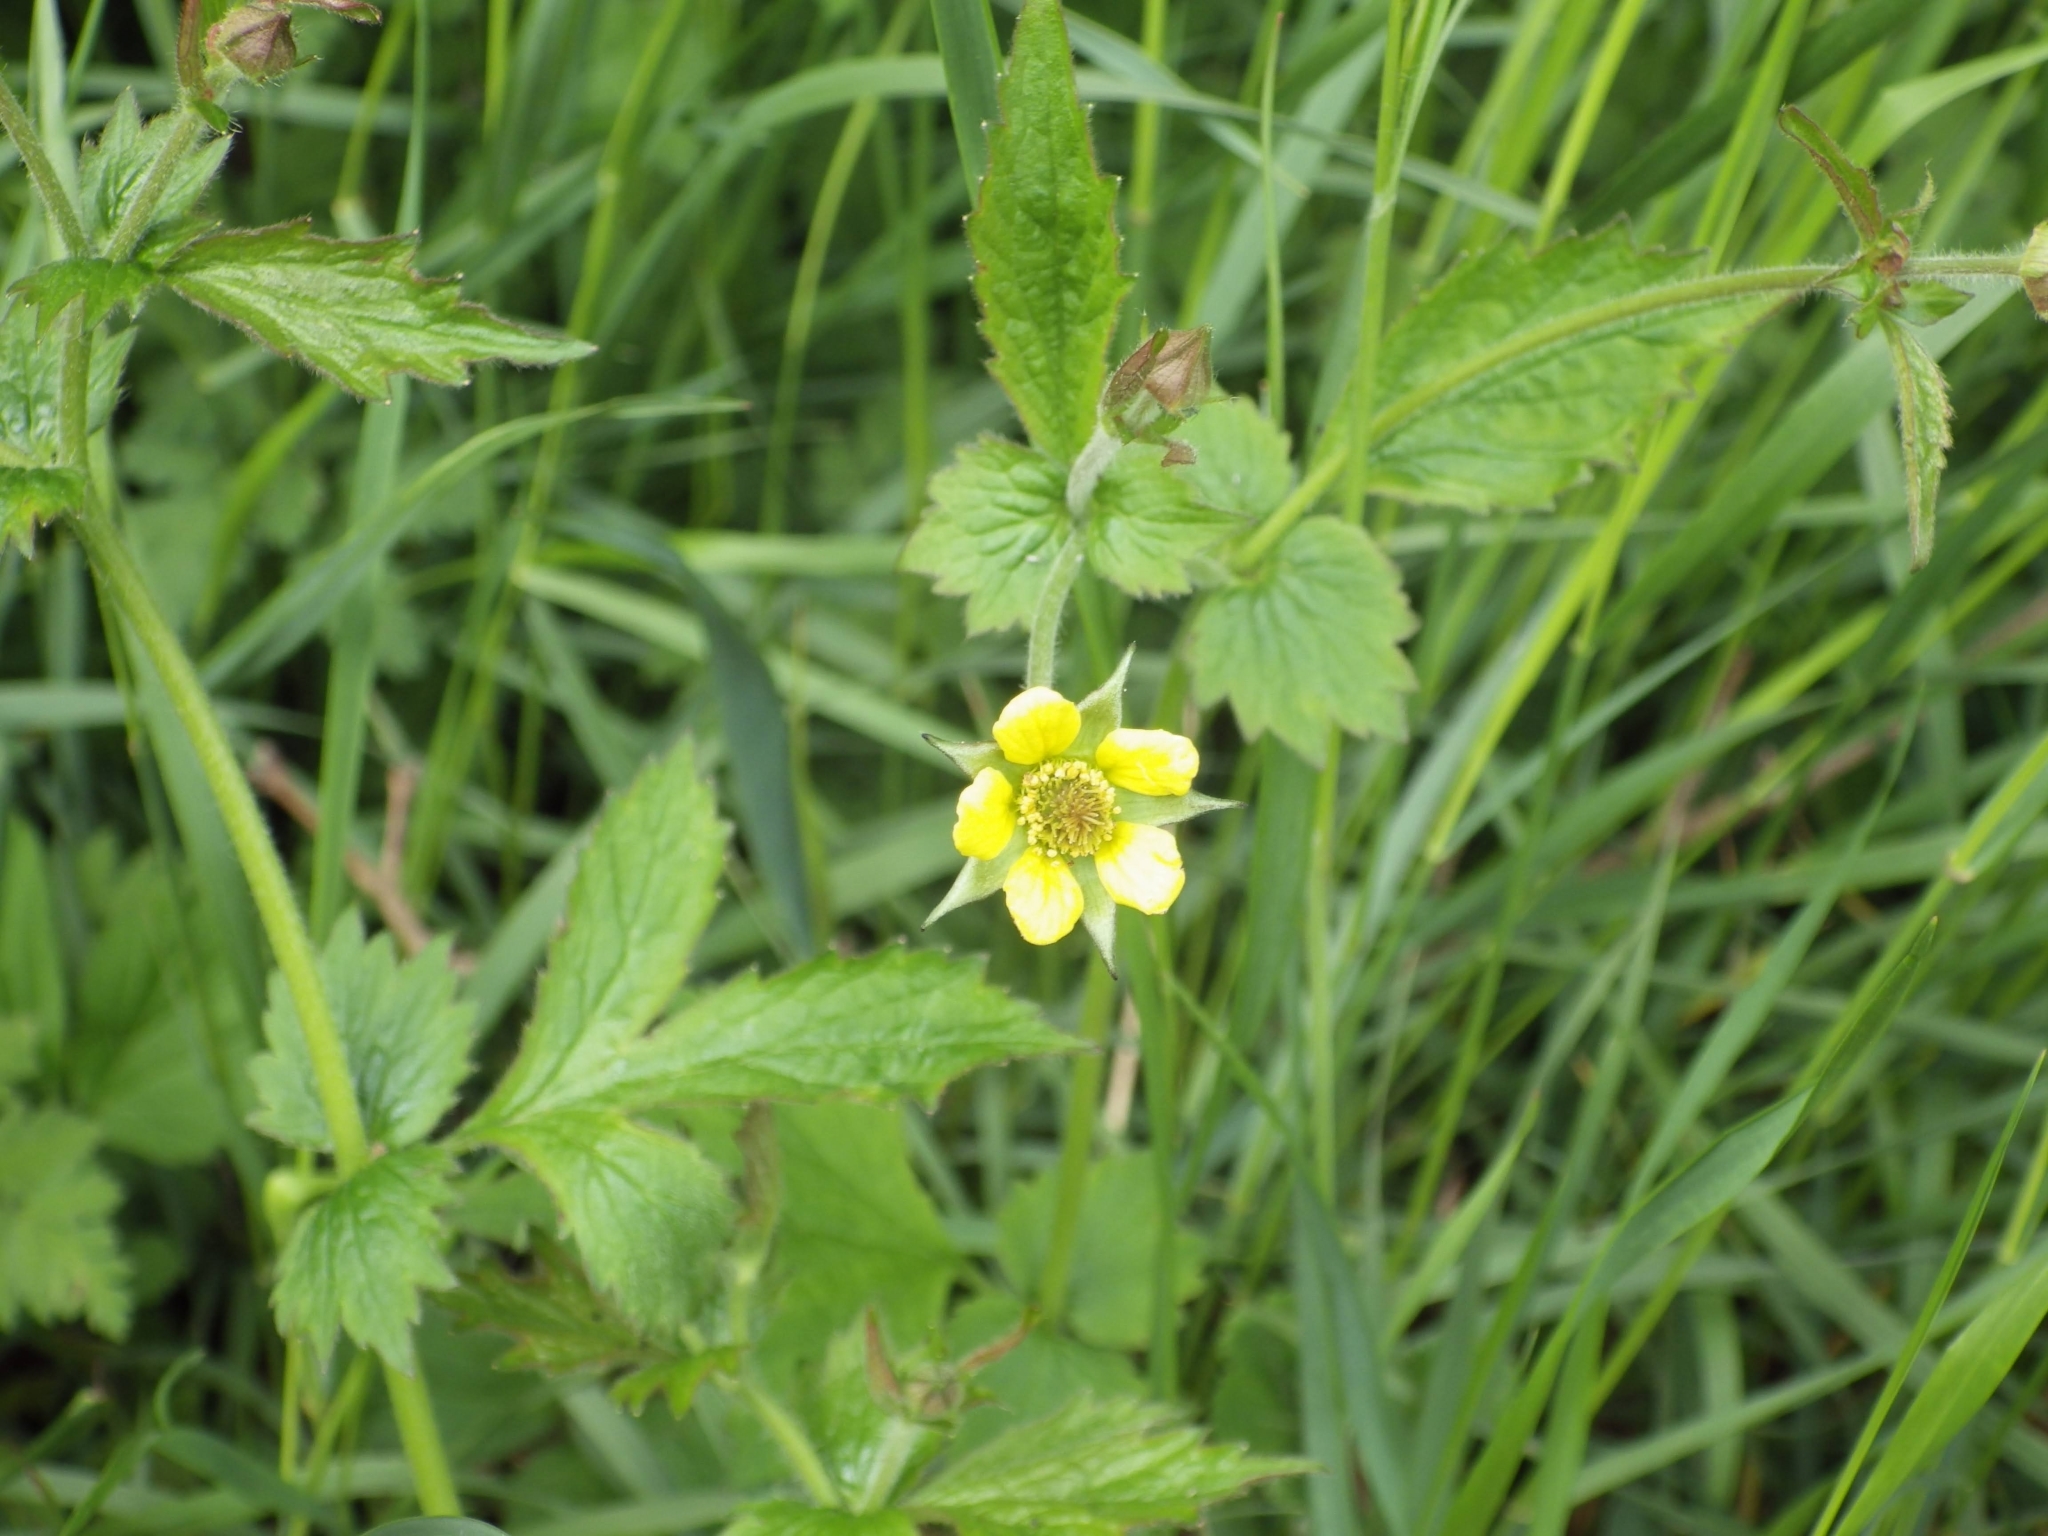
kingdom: Plantae
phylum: Tracheophyta
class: Magnoliopsida
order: Rosales
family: Rosaceae
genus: Geum
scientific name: Geum urbanum
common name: Wood avens
